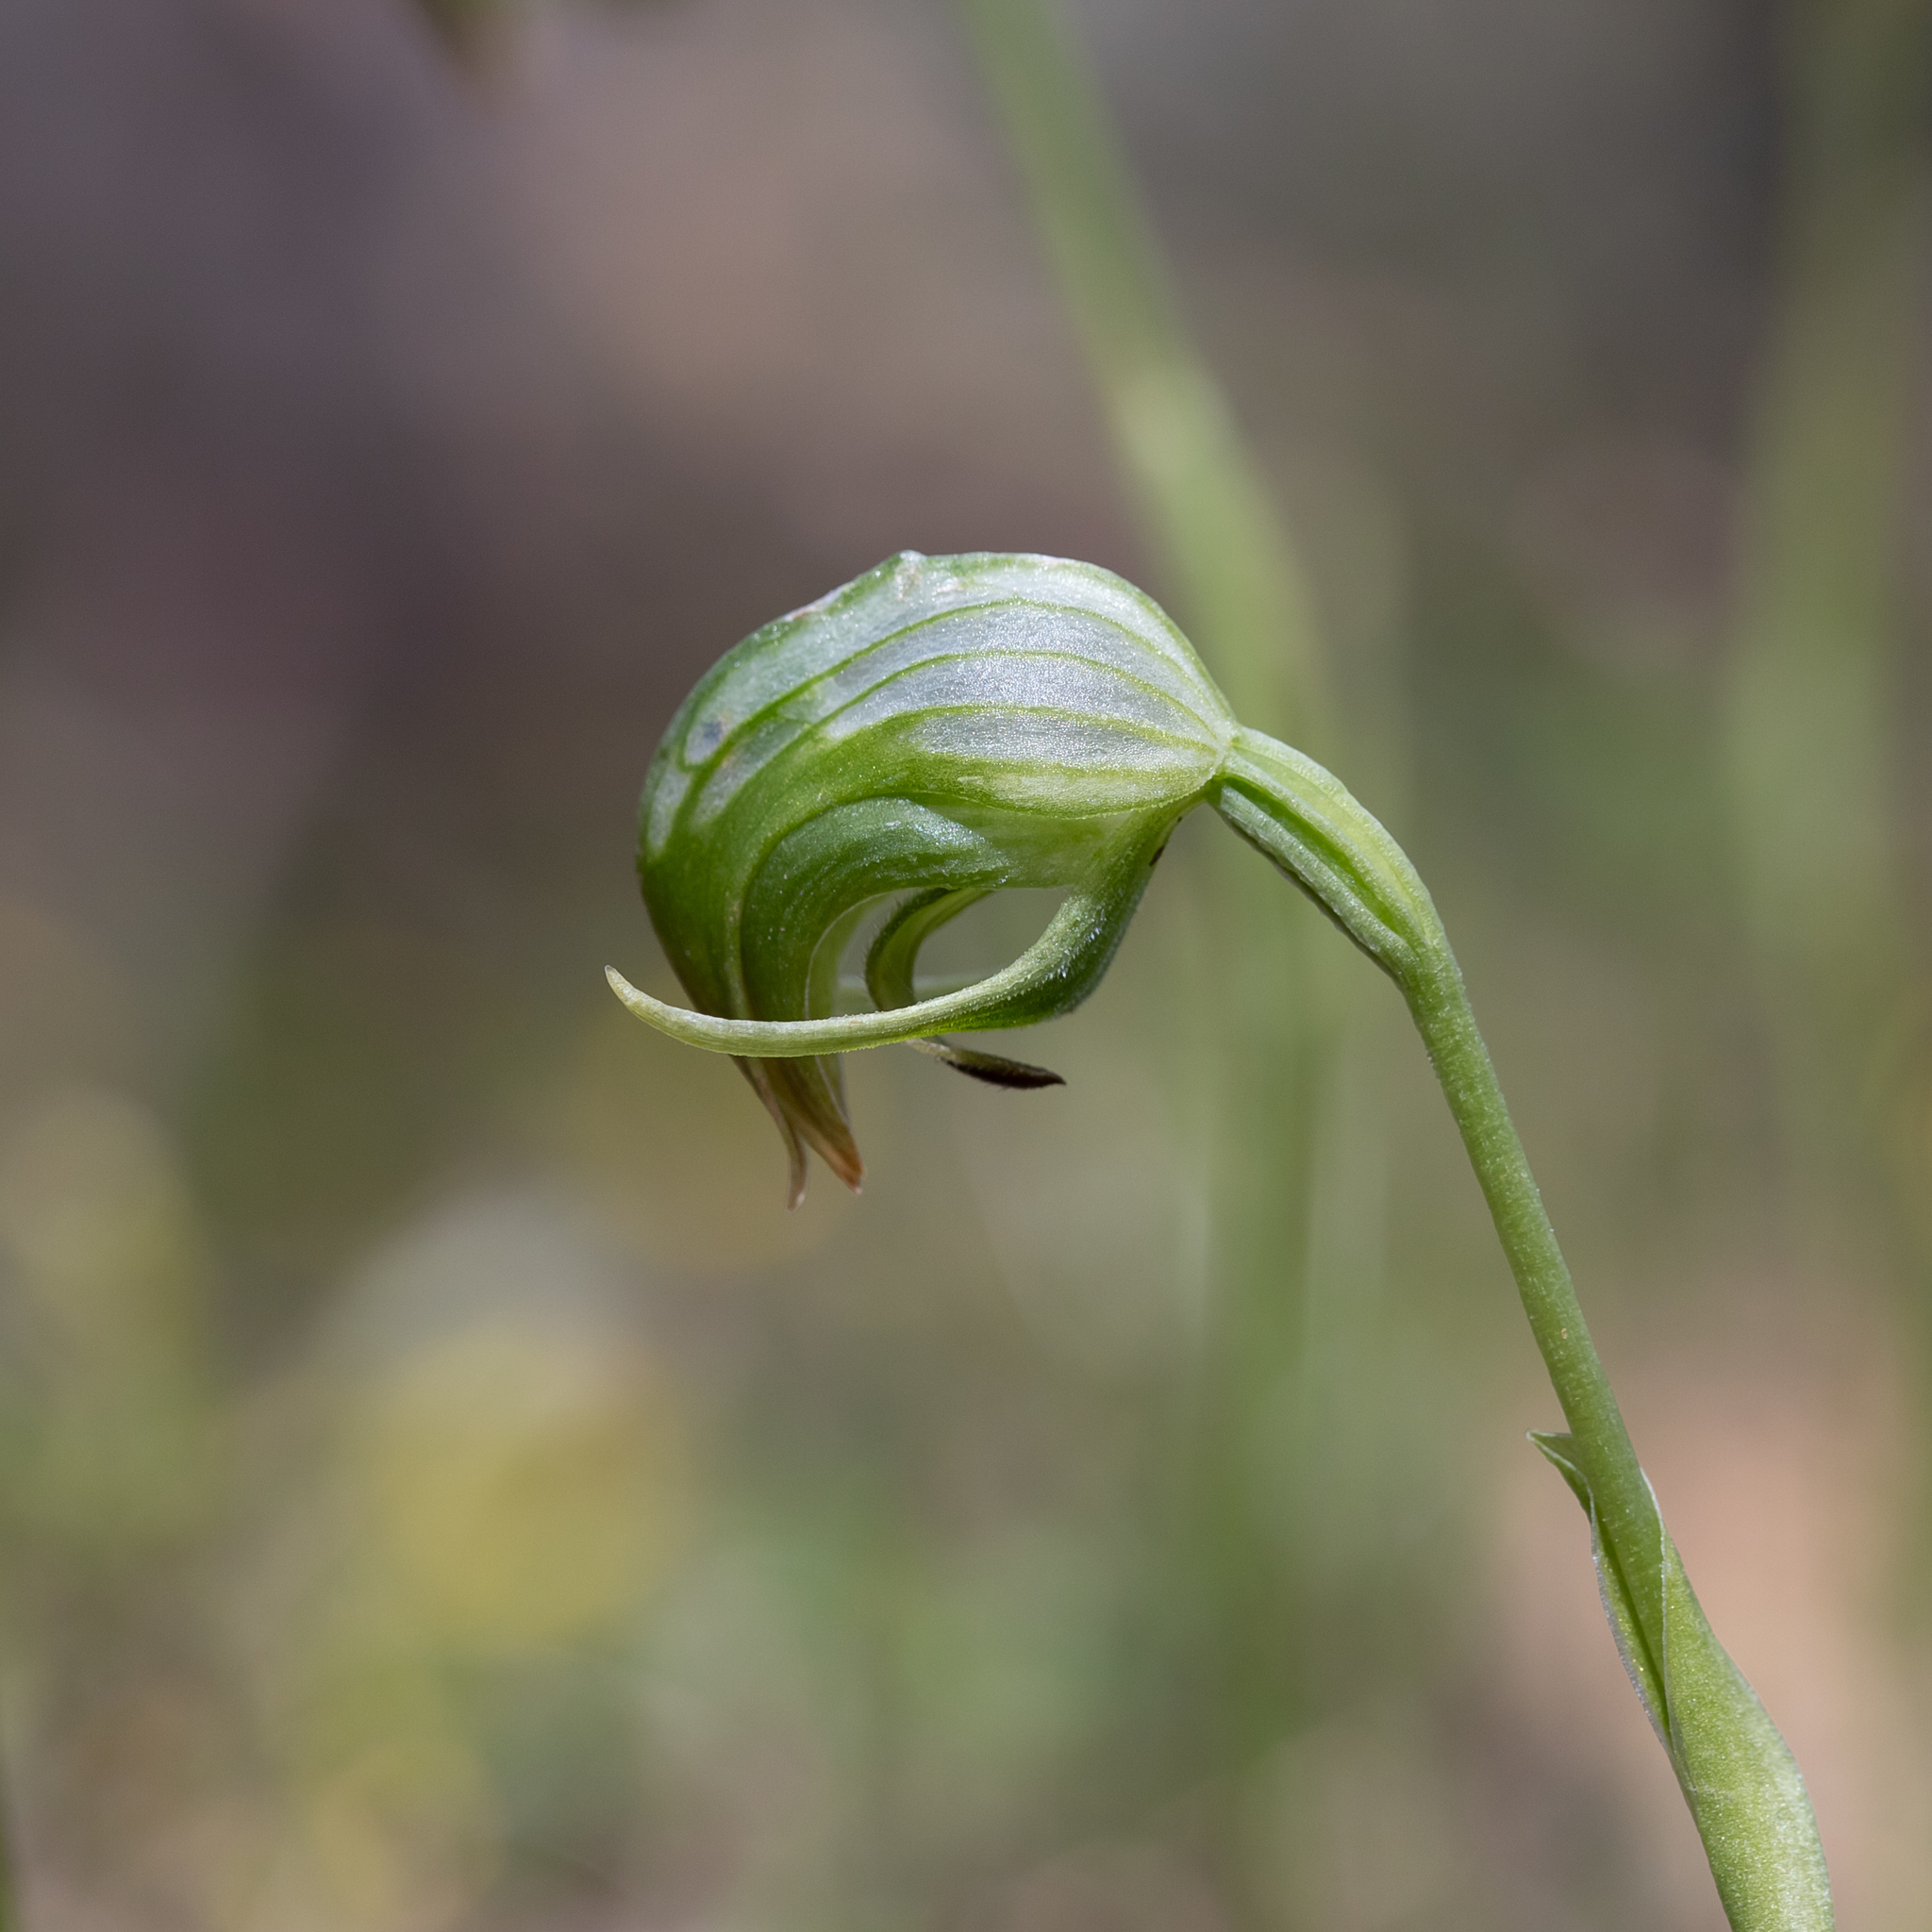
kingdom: Plantae
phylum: Tracheophyta
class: Liliopsida
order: Asparagales
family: Orchidaceae
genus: Pterostylis
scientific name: Pterostylis nutans
